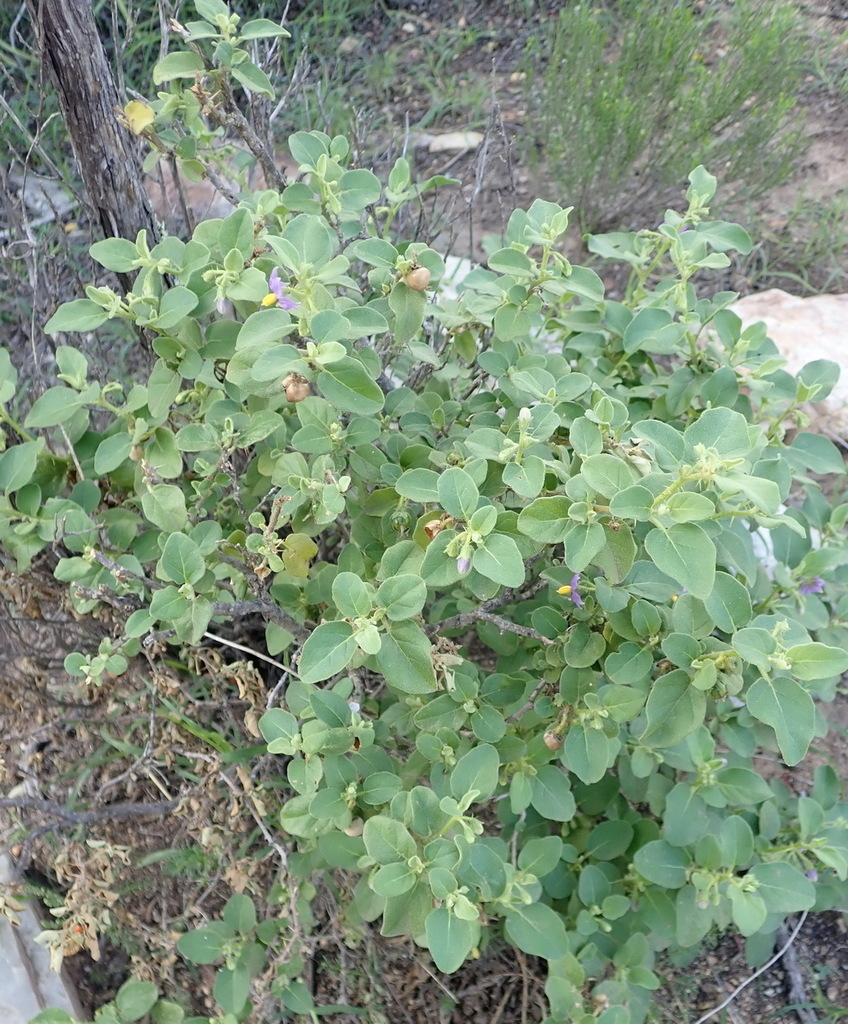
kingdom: Plantae
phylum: Tracheophyta
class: Magnoliopsida
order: Solanales
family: Solanaceae
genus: Solanum
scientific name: Solanum tomentosum
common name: Wild aubergine
